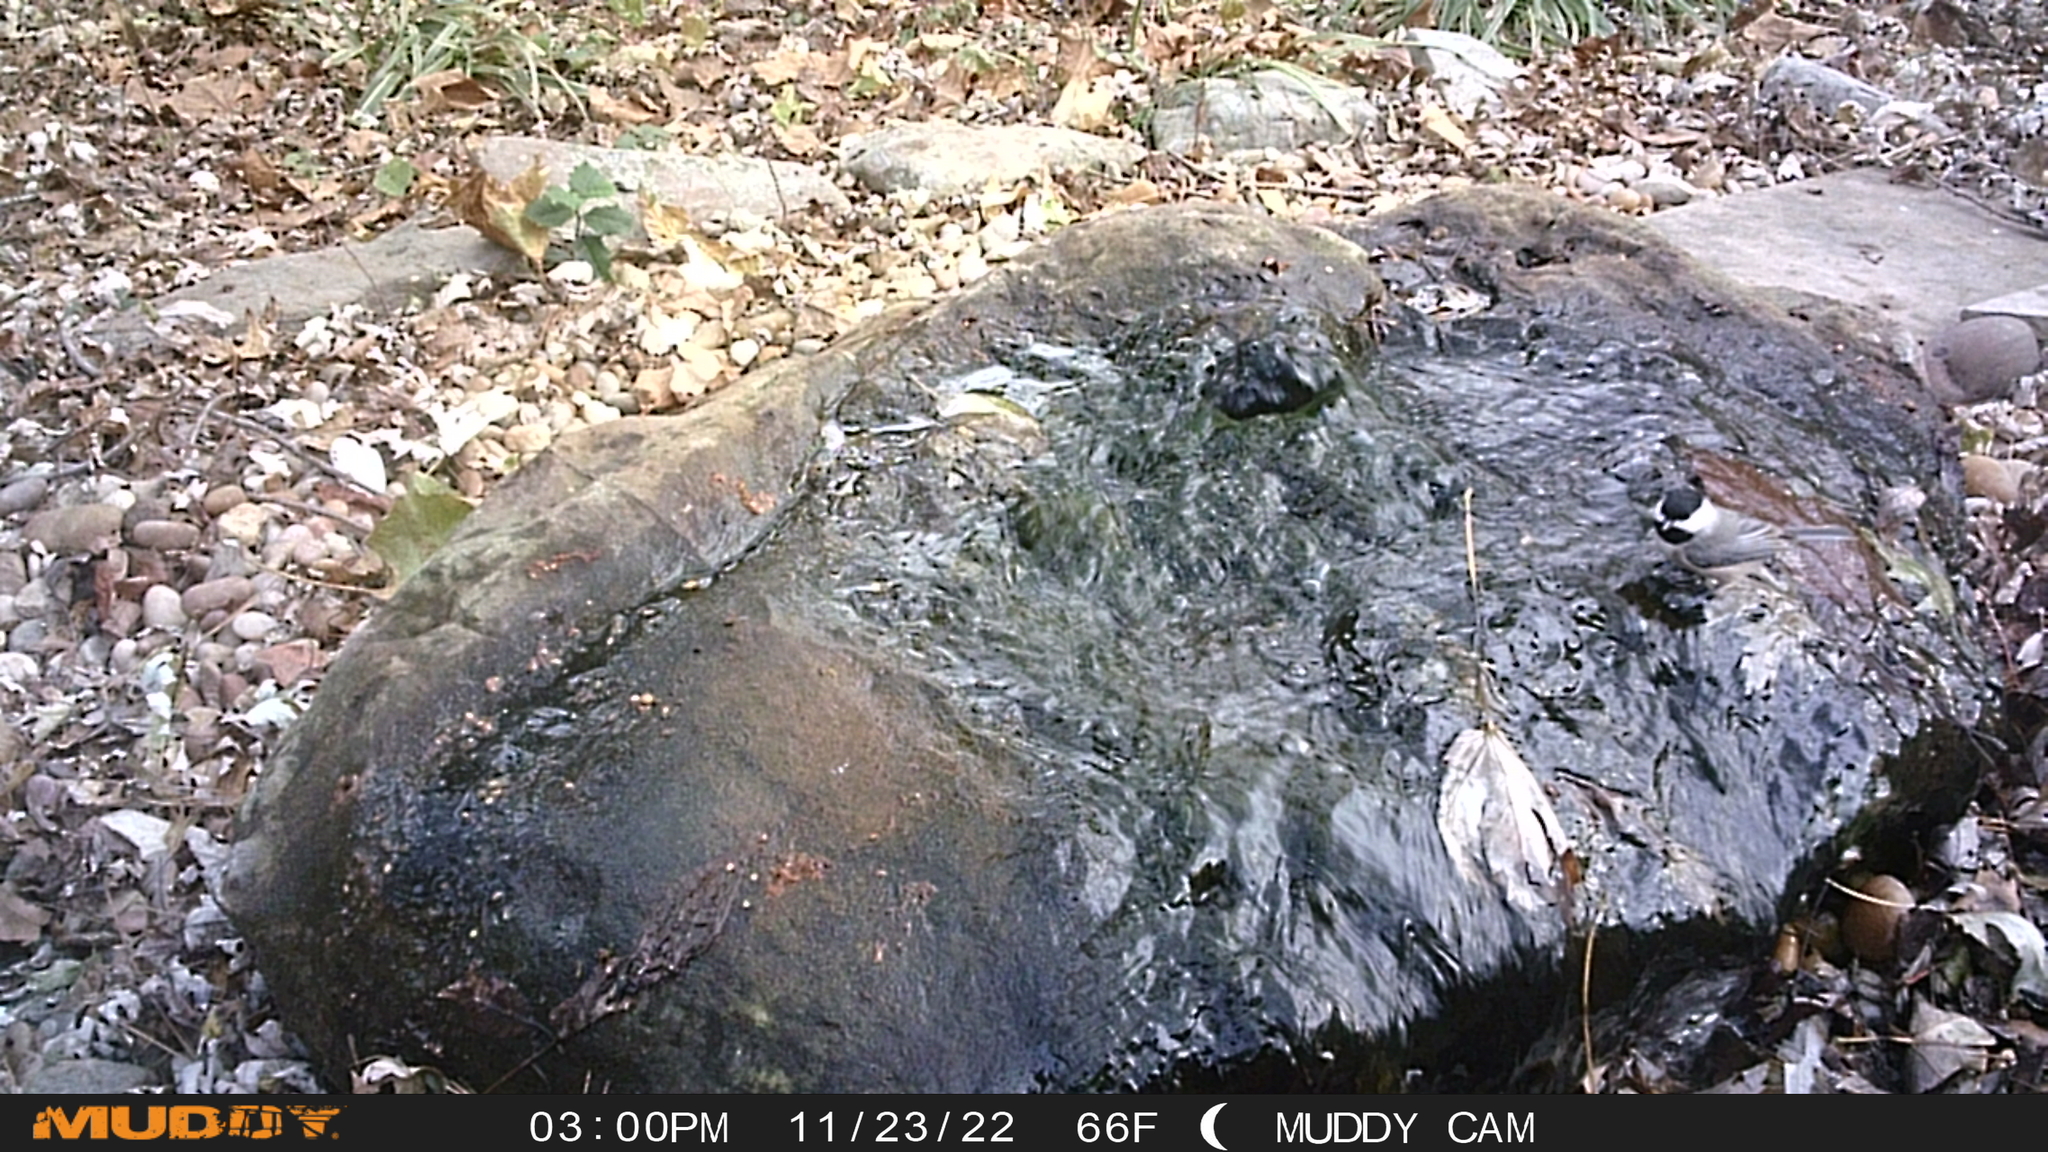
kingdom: Animalia
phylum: Chordata
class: Aves
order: Passeriformes
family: Paridae
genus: Poecile
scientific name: Poecile carolinensis
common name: Carolina chickadee
